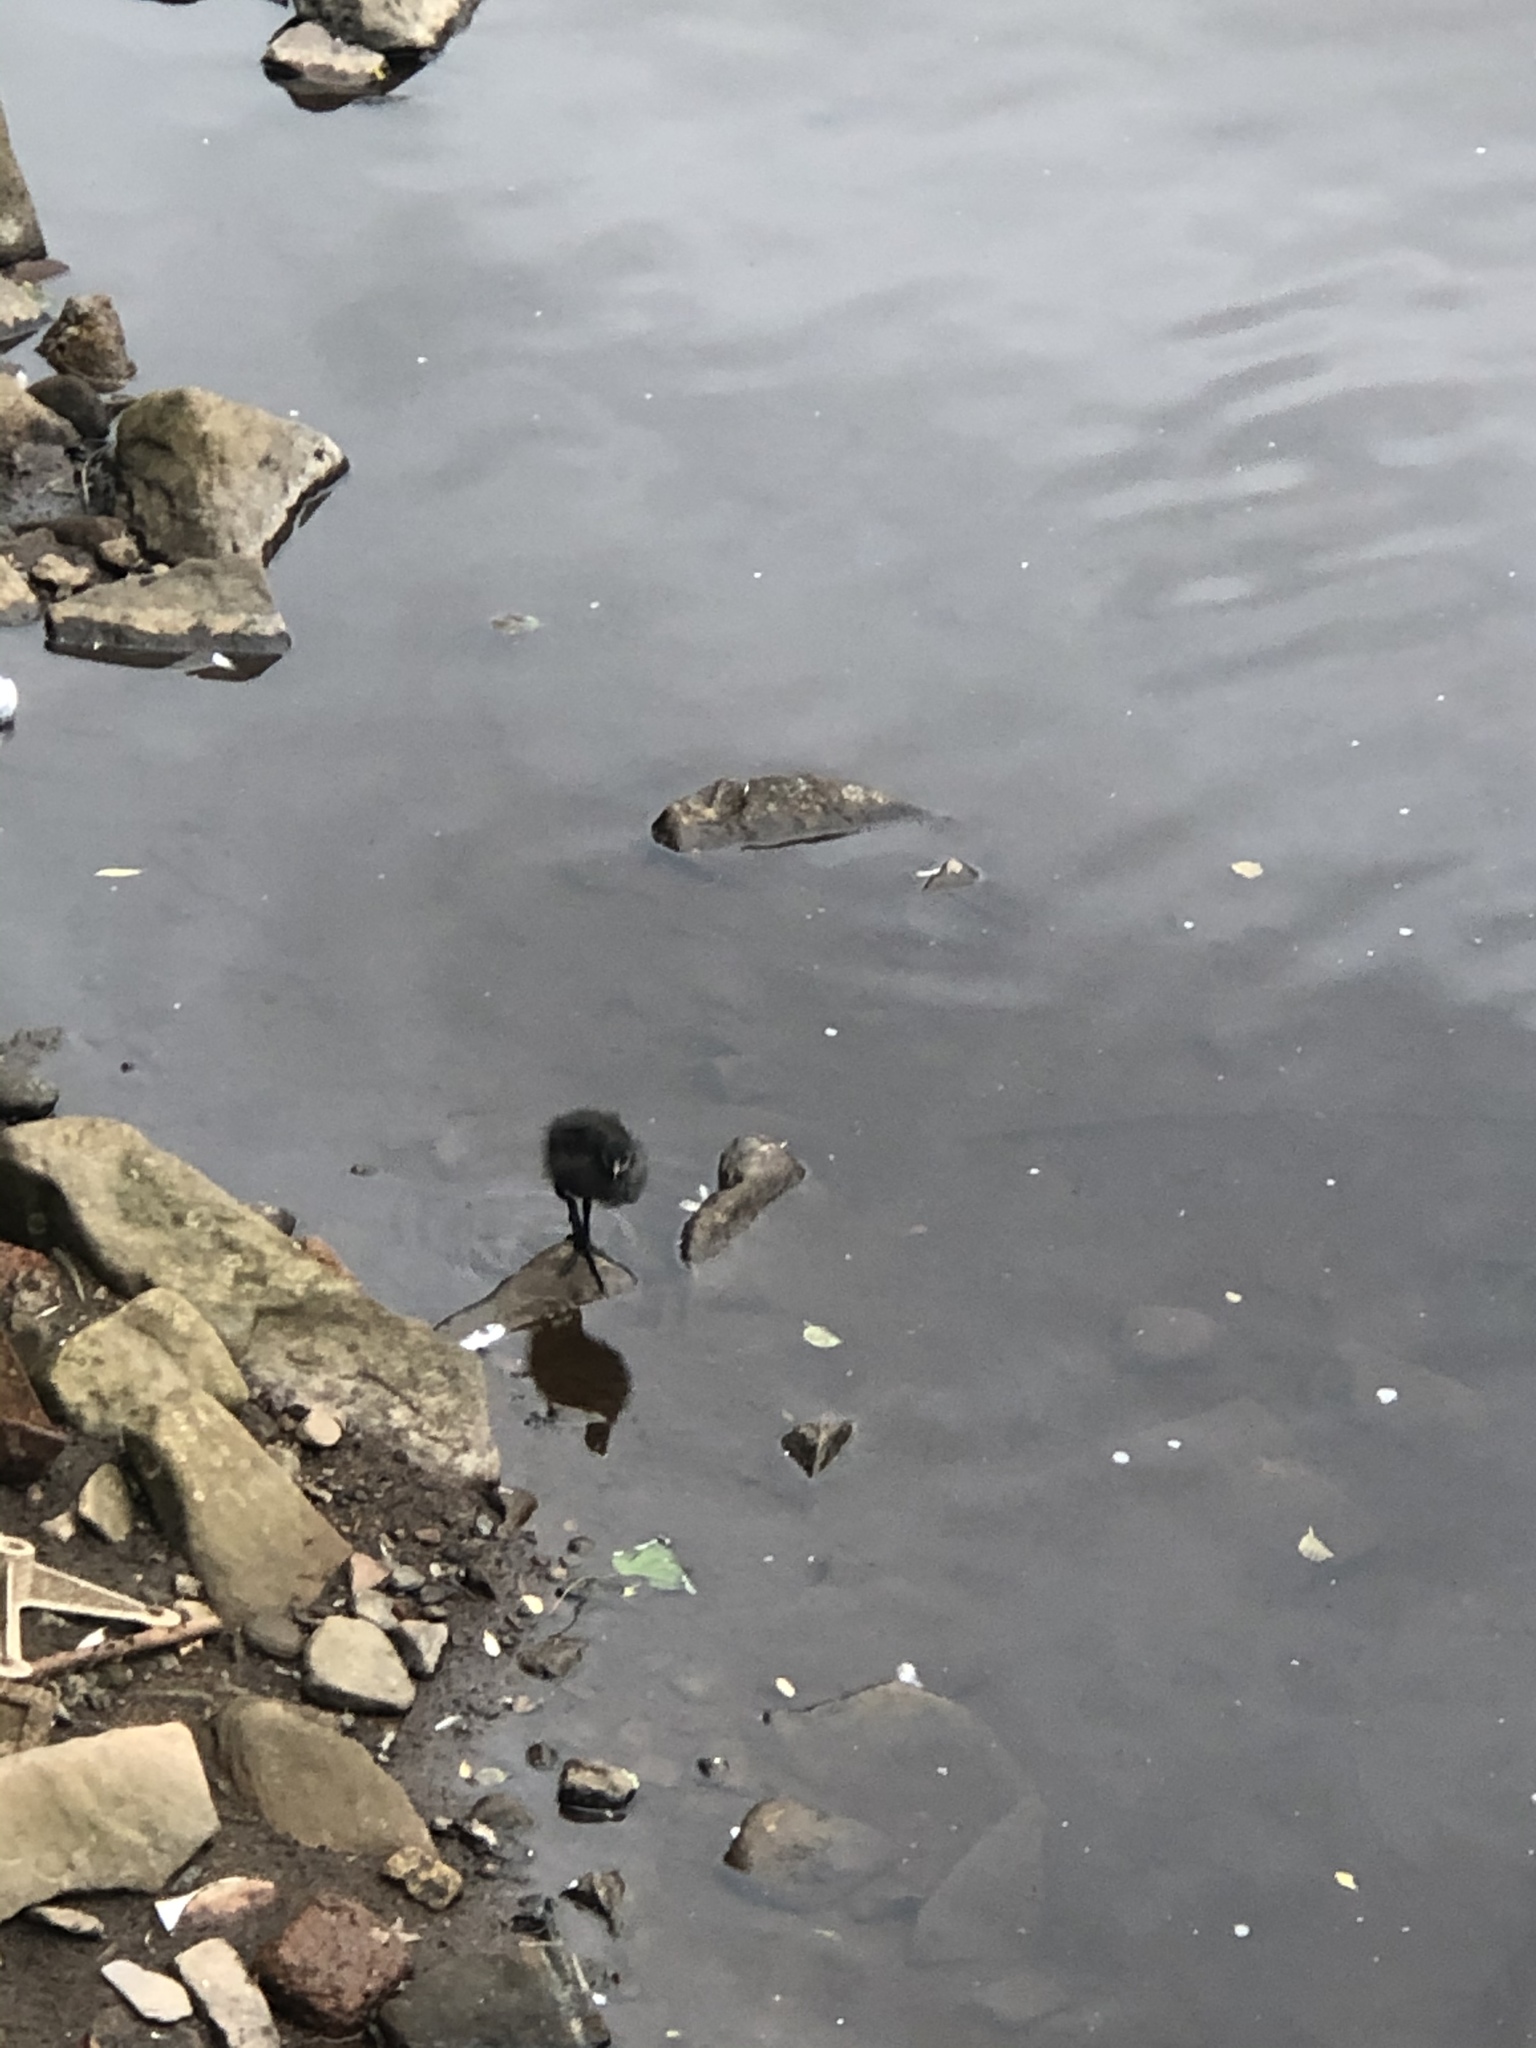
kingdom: Animalia
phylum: Chordata
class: Aves
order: Gruiformes
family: Rallidae
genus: Fulica
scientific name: Fulica atra
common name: Eurasian coot
